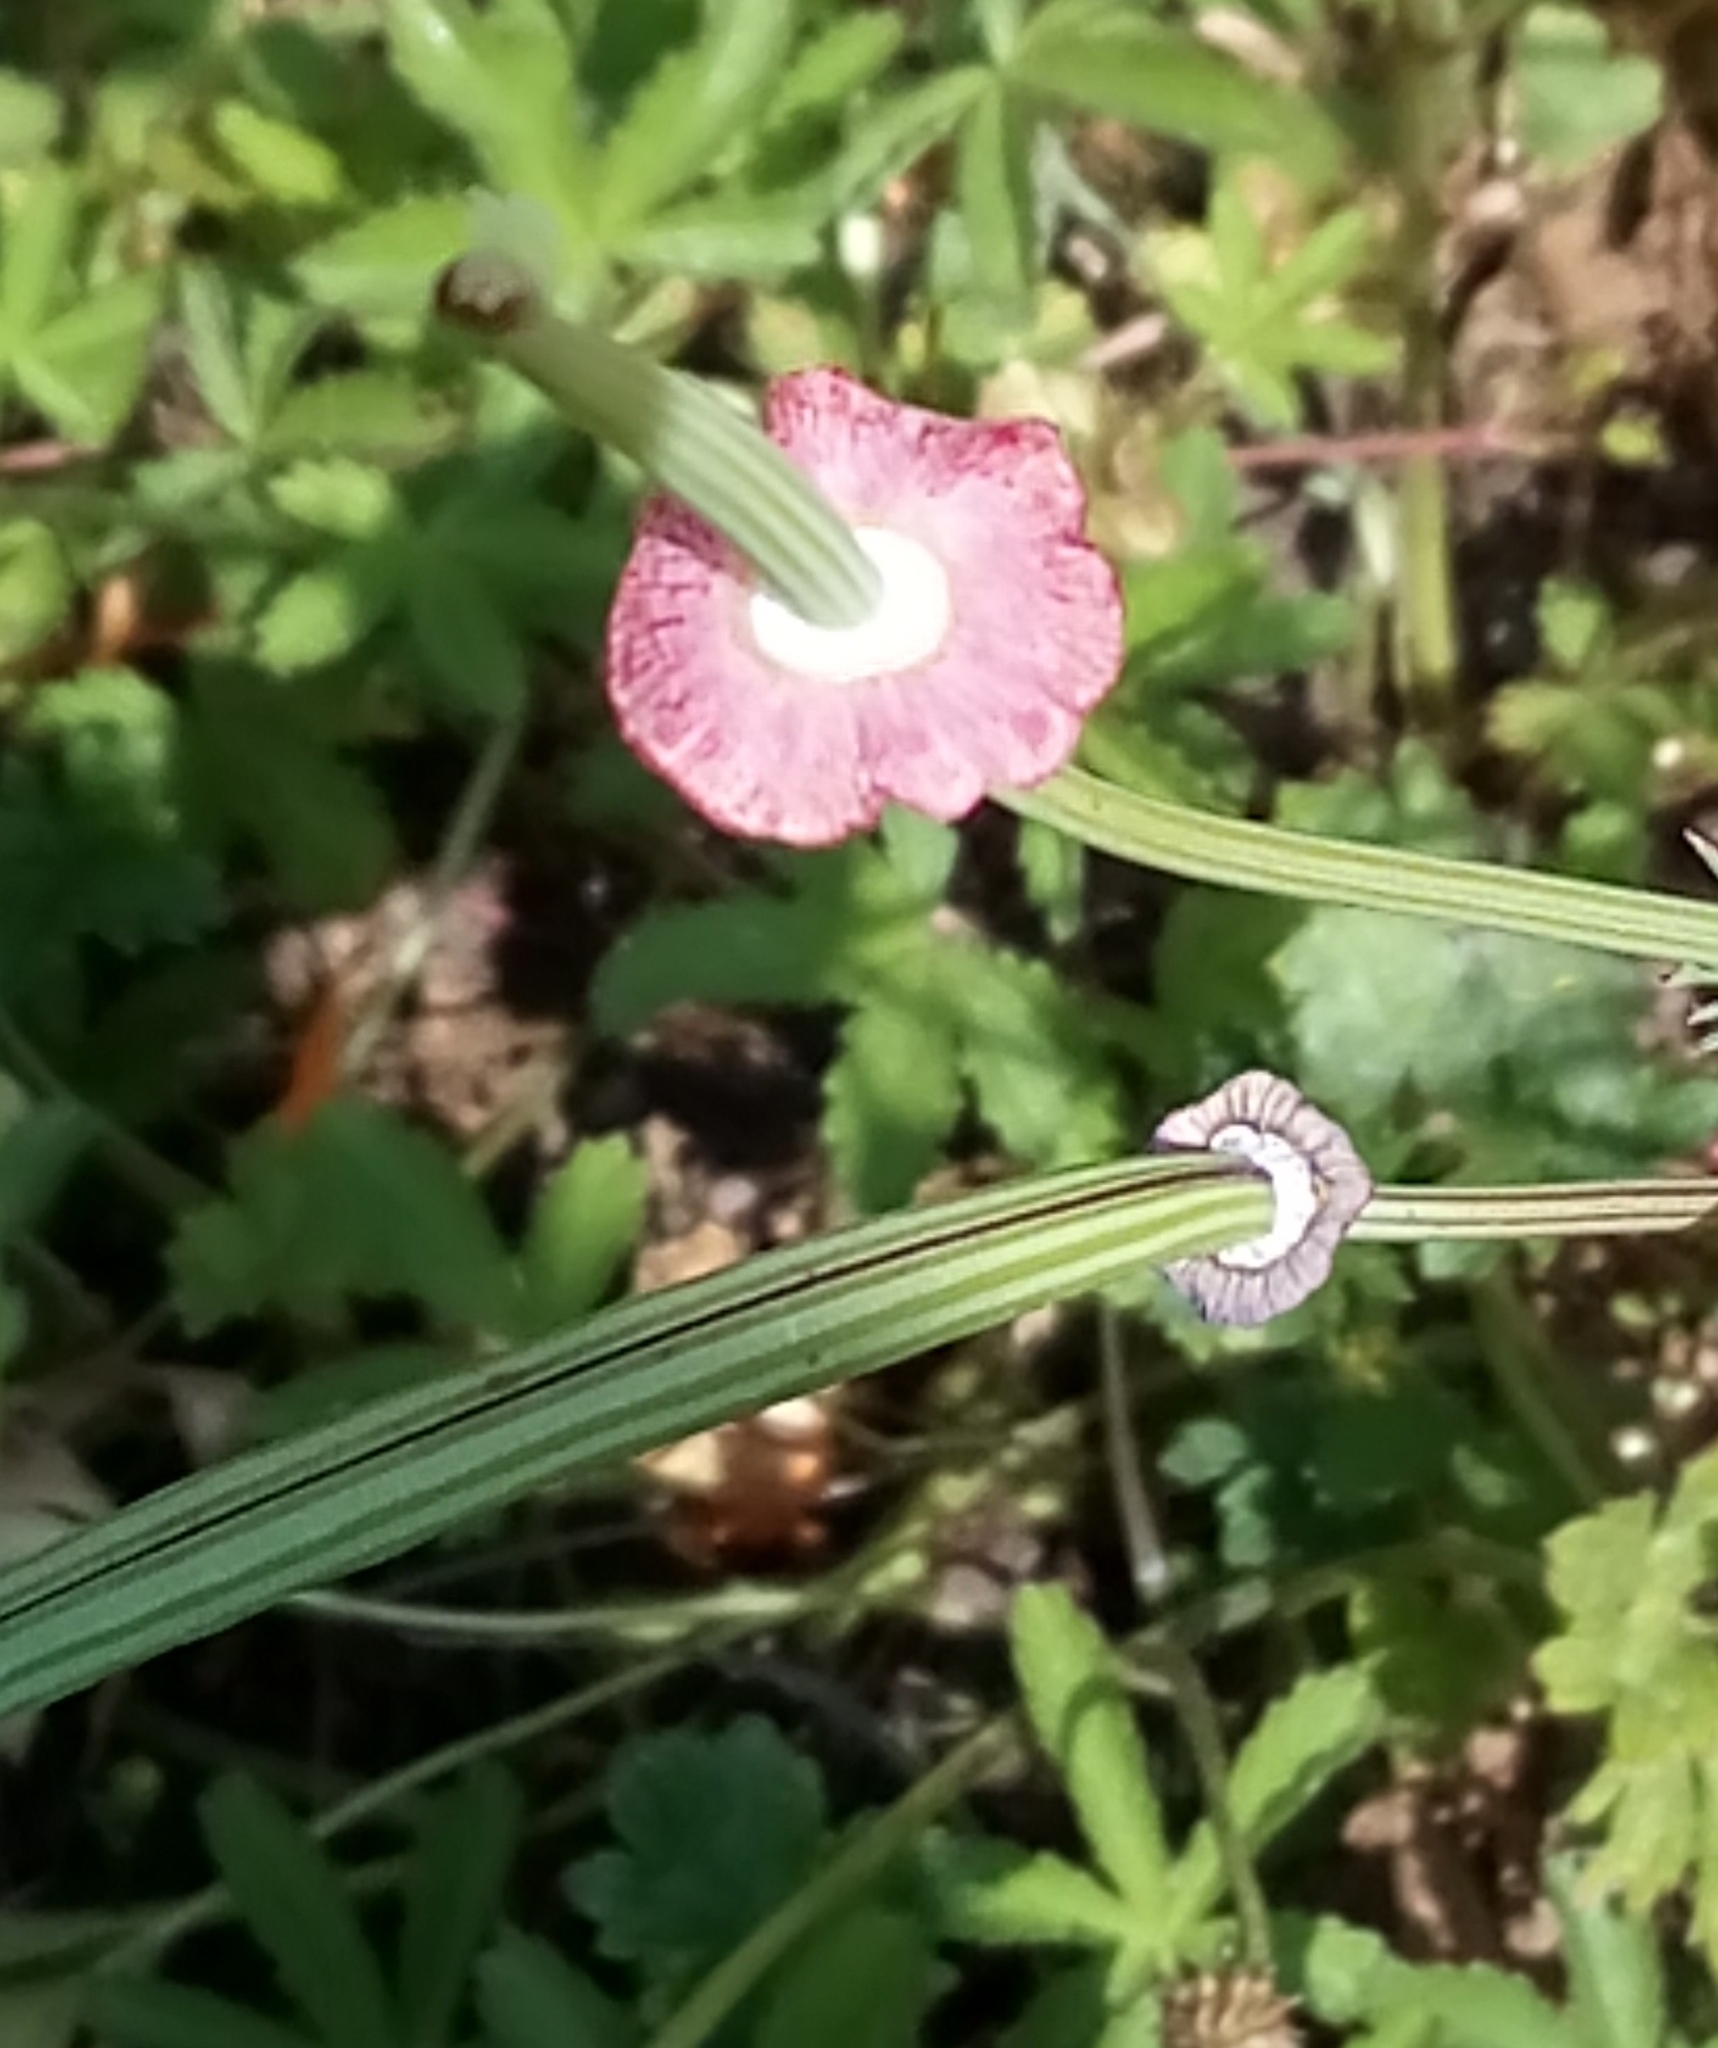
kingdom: Plantae
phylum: Tracheophyta
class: Magnoliopsida
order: Ranunculales
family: Papaveraceae
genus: Eschscholzia
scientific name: Eschscholzia californica
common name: California poppy
